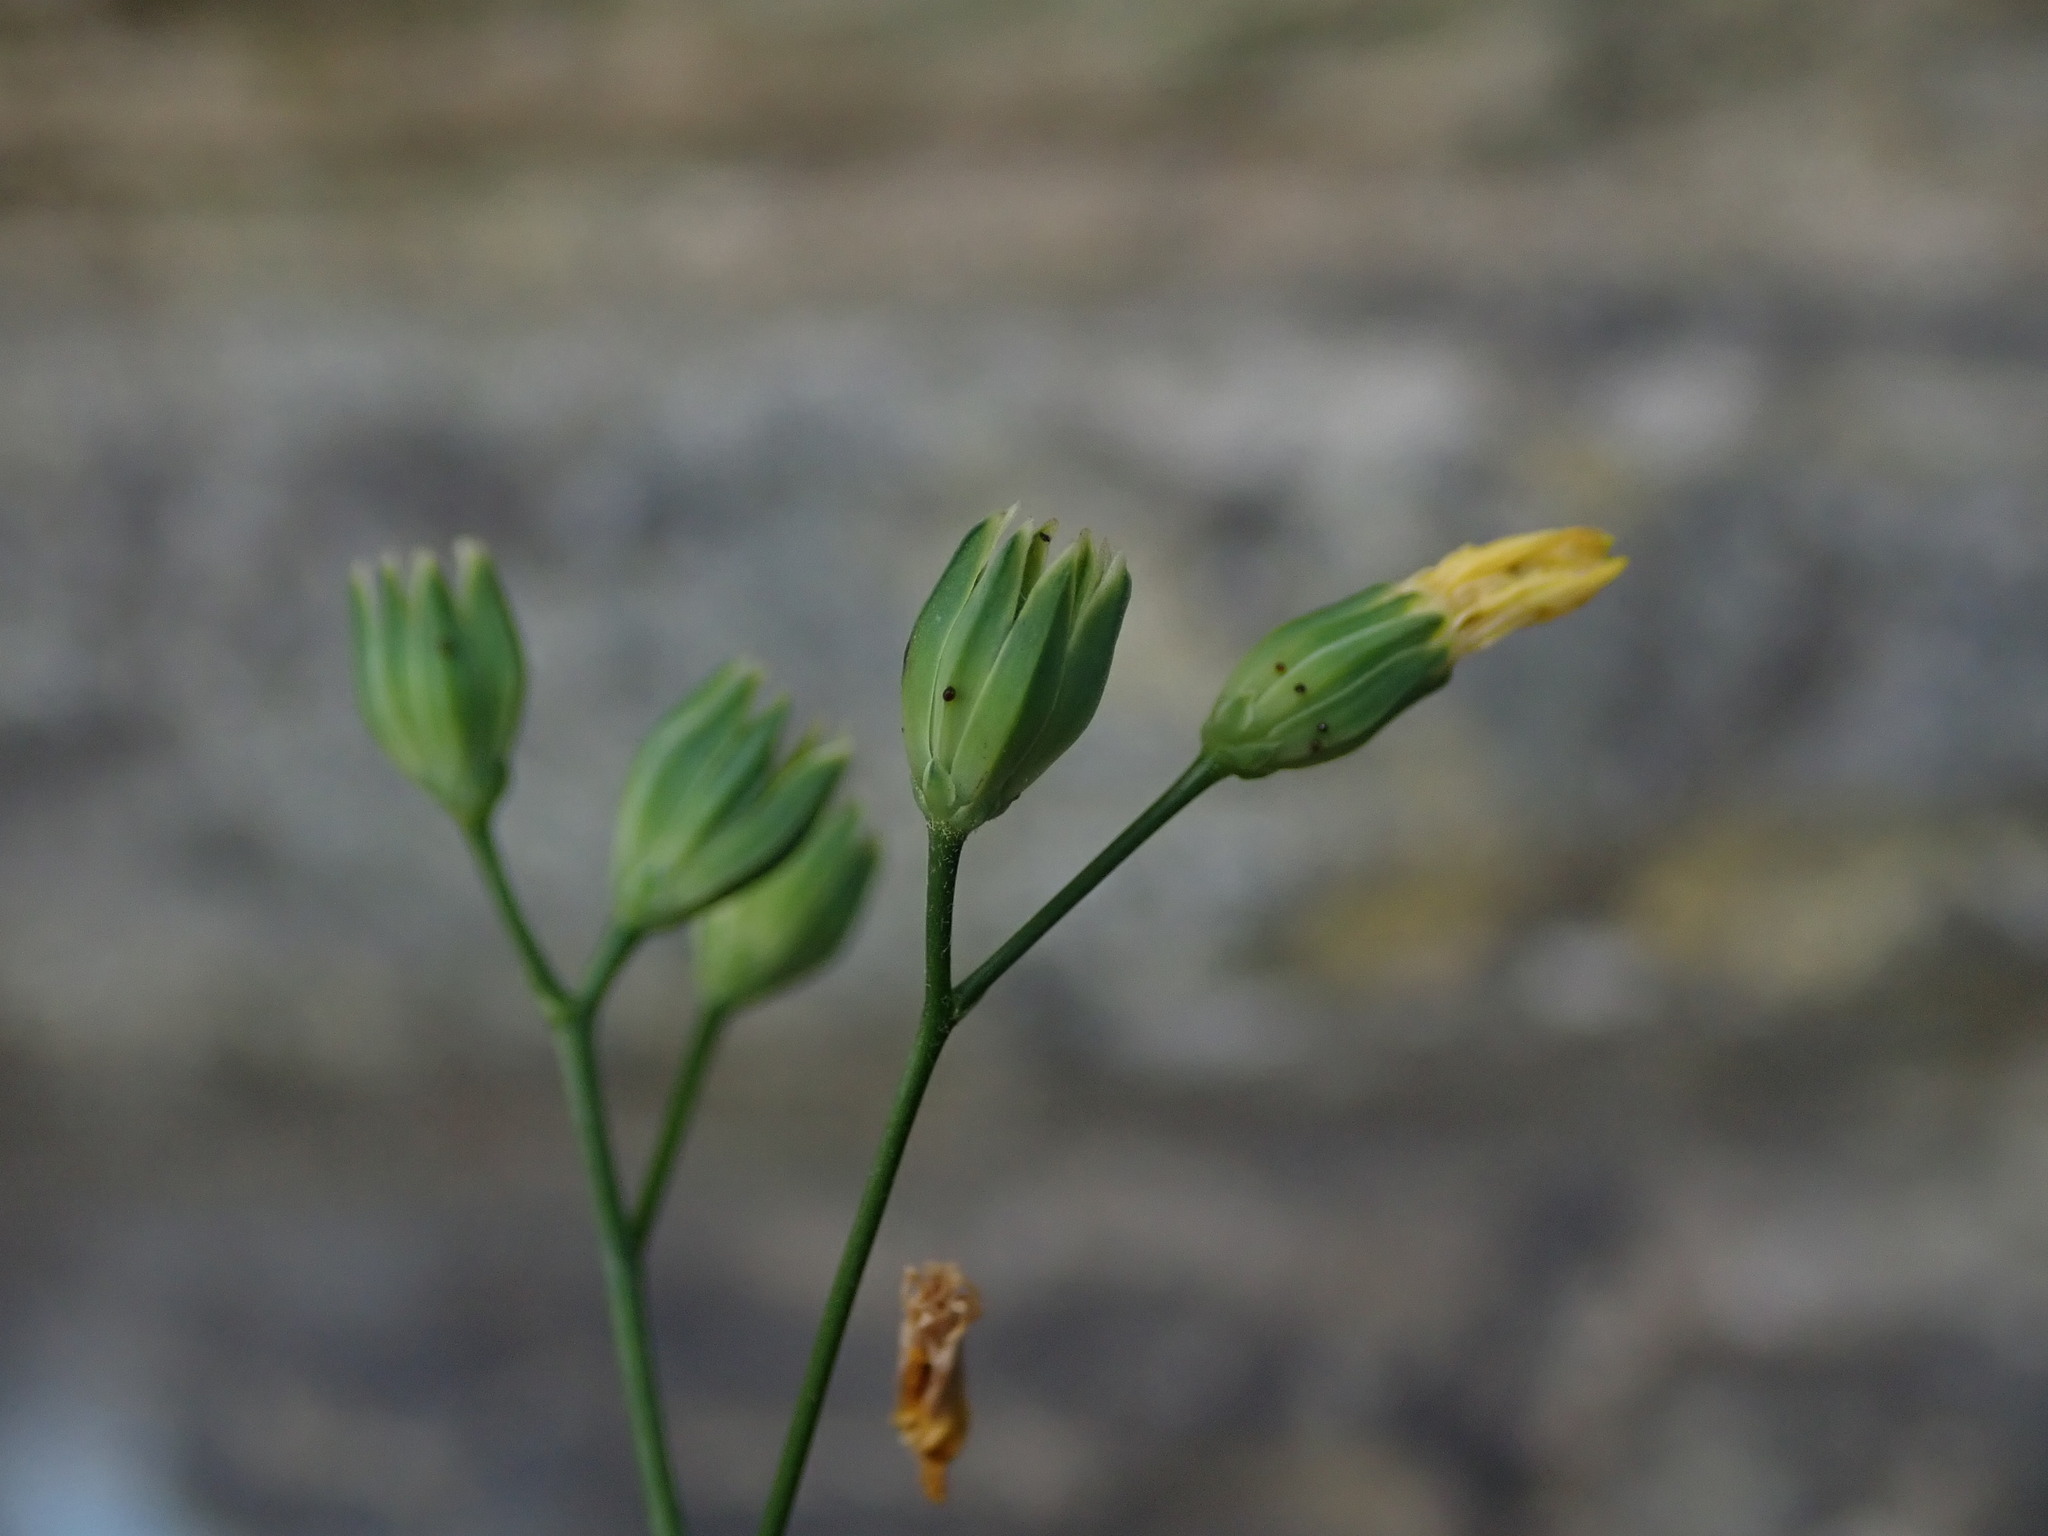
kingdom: Plantae
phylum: Tracheophyta
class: Magnoliopsida
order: Asterales
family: Asteraceae
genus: Lapsana
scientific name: Lapsana communis
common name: Nipplewort
